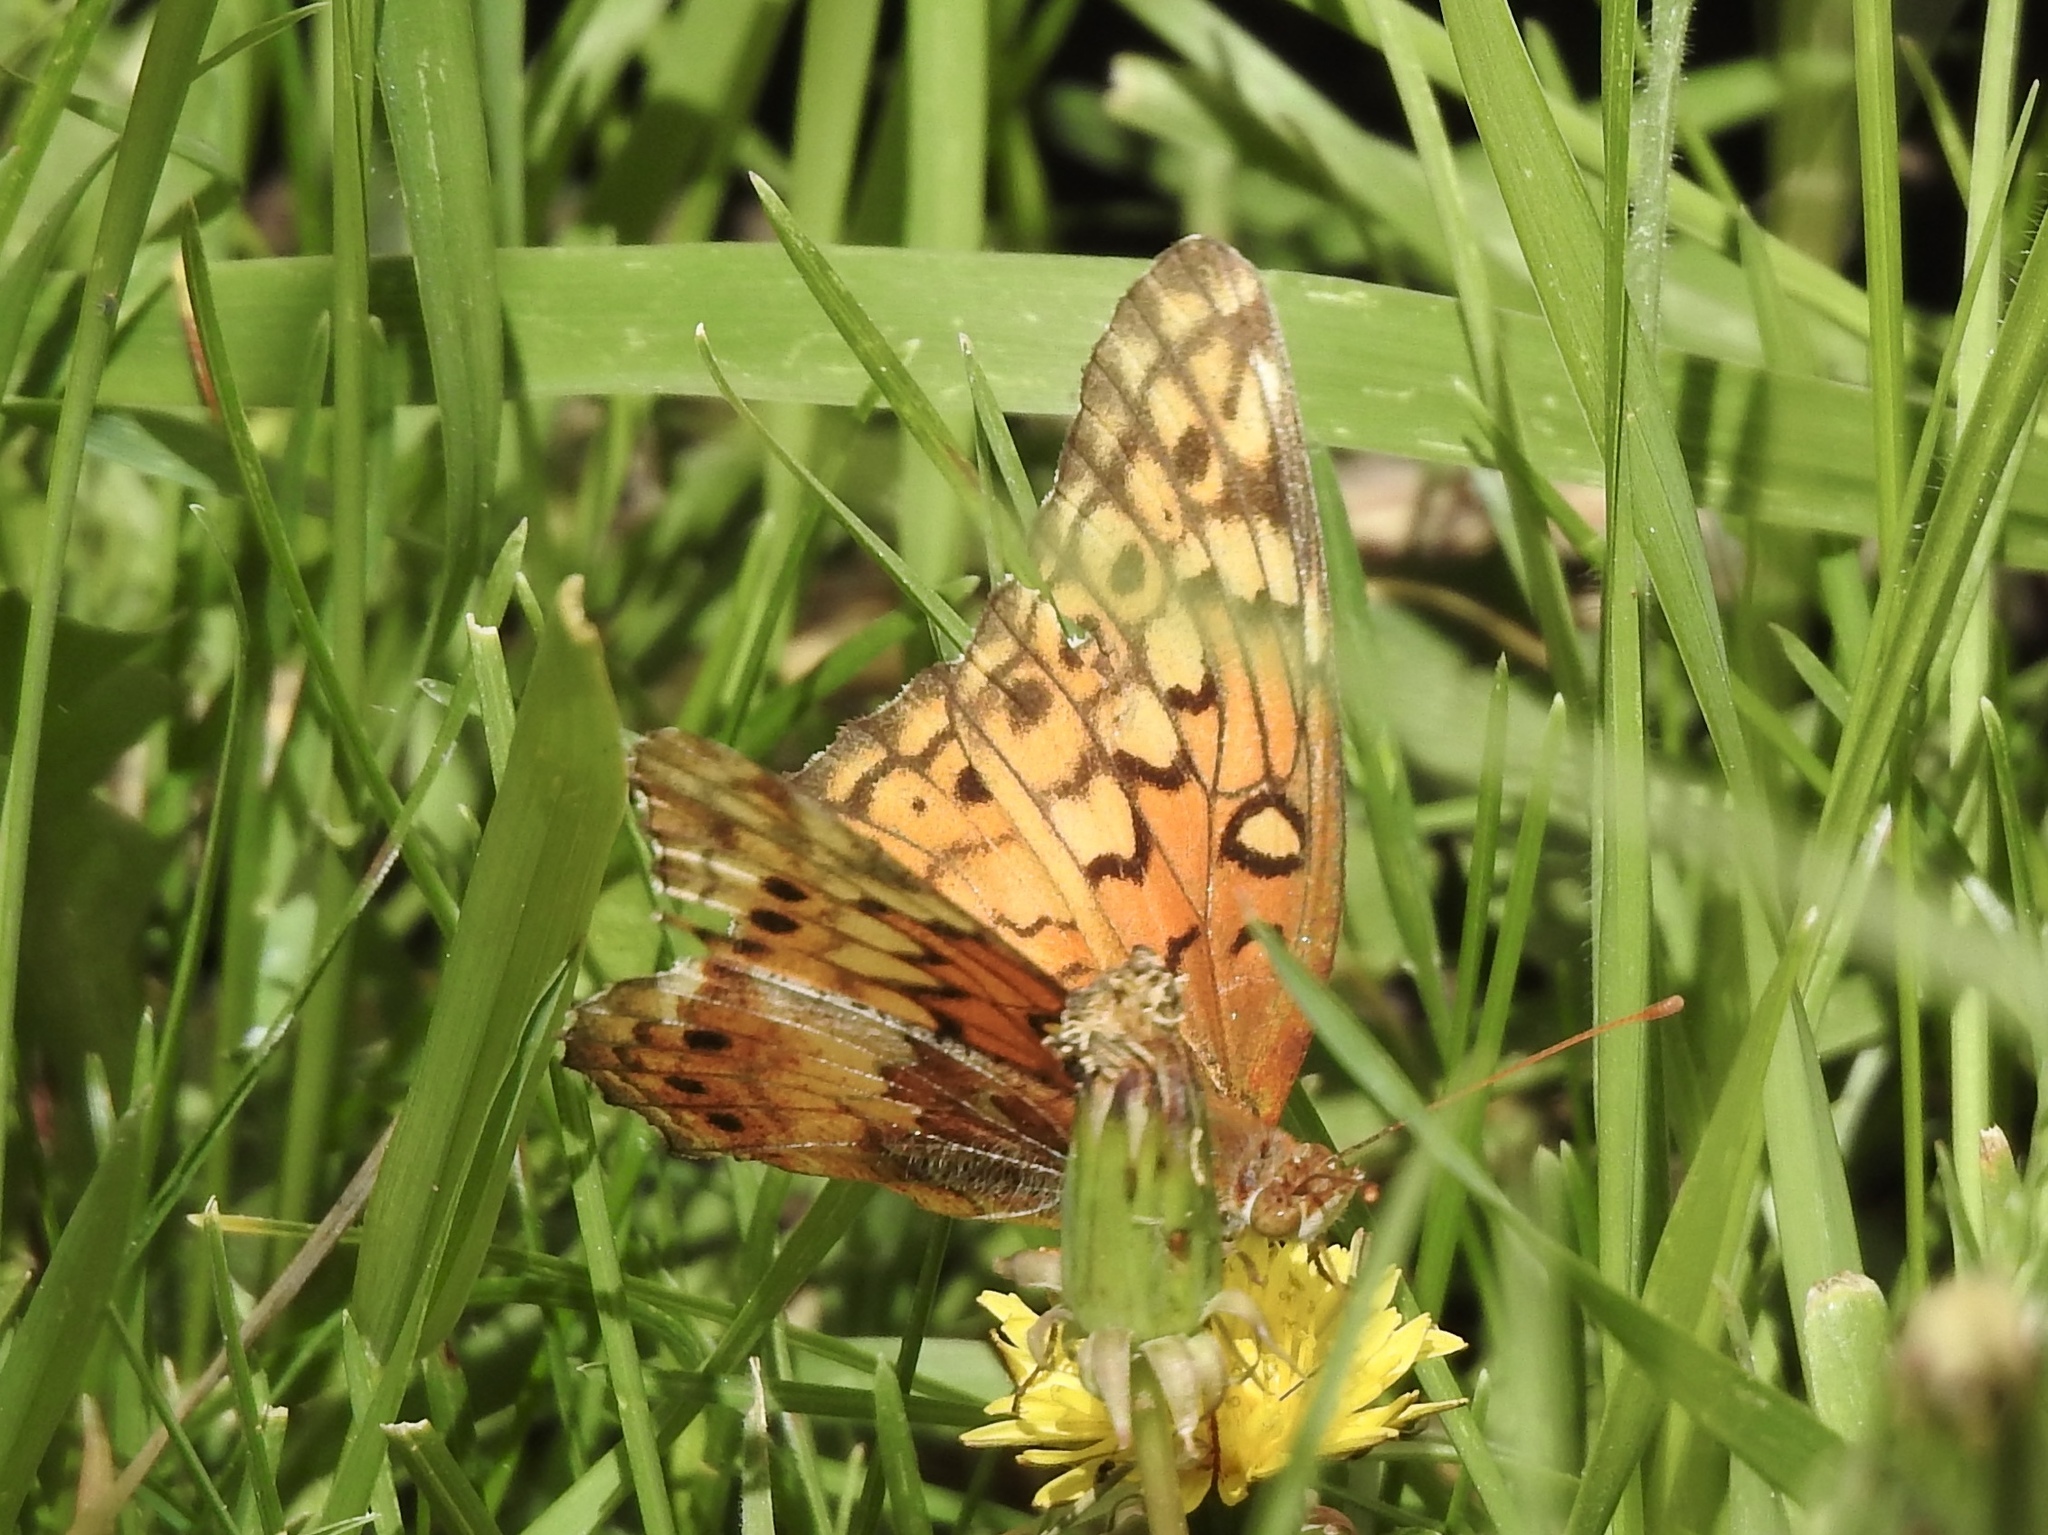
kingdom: Animalia
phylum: Arthropoda
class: Insecta
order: Lepidoptera
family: Nymphalidae
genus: Euptoieta
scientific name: Euptoieta claudia
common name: Variegated fritillary
